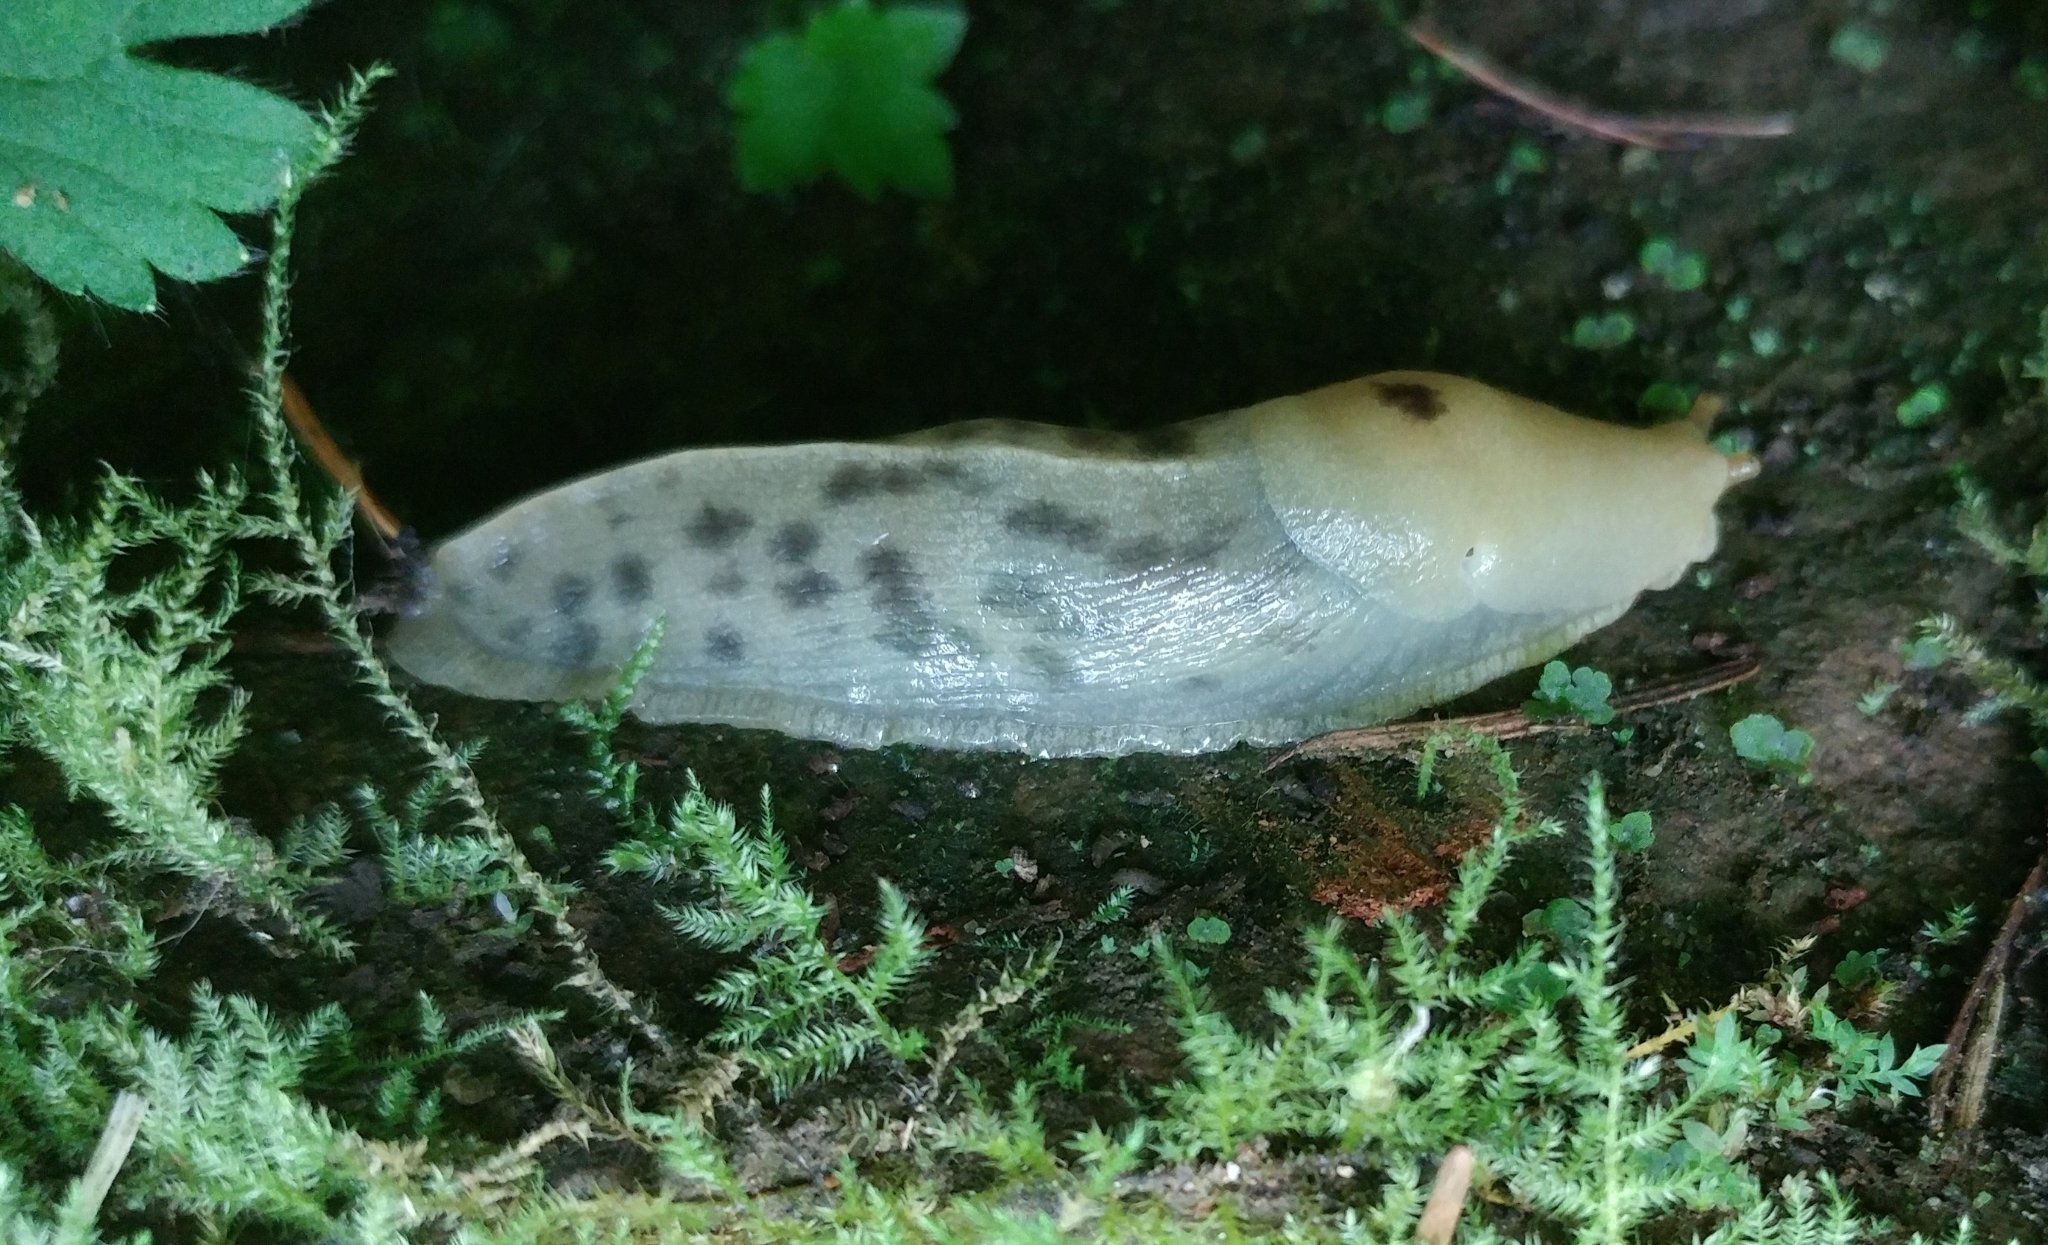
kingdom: Animalia
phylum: Mollusca
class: Gastropoda
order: Stylommatophora
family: Ariolimacidae
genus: Ariolimax
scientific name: Ariolimax columbianus
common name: Pacific banana slug
